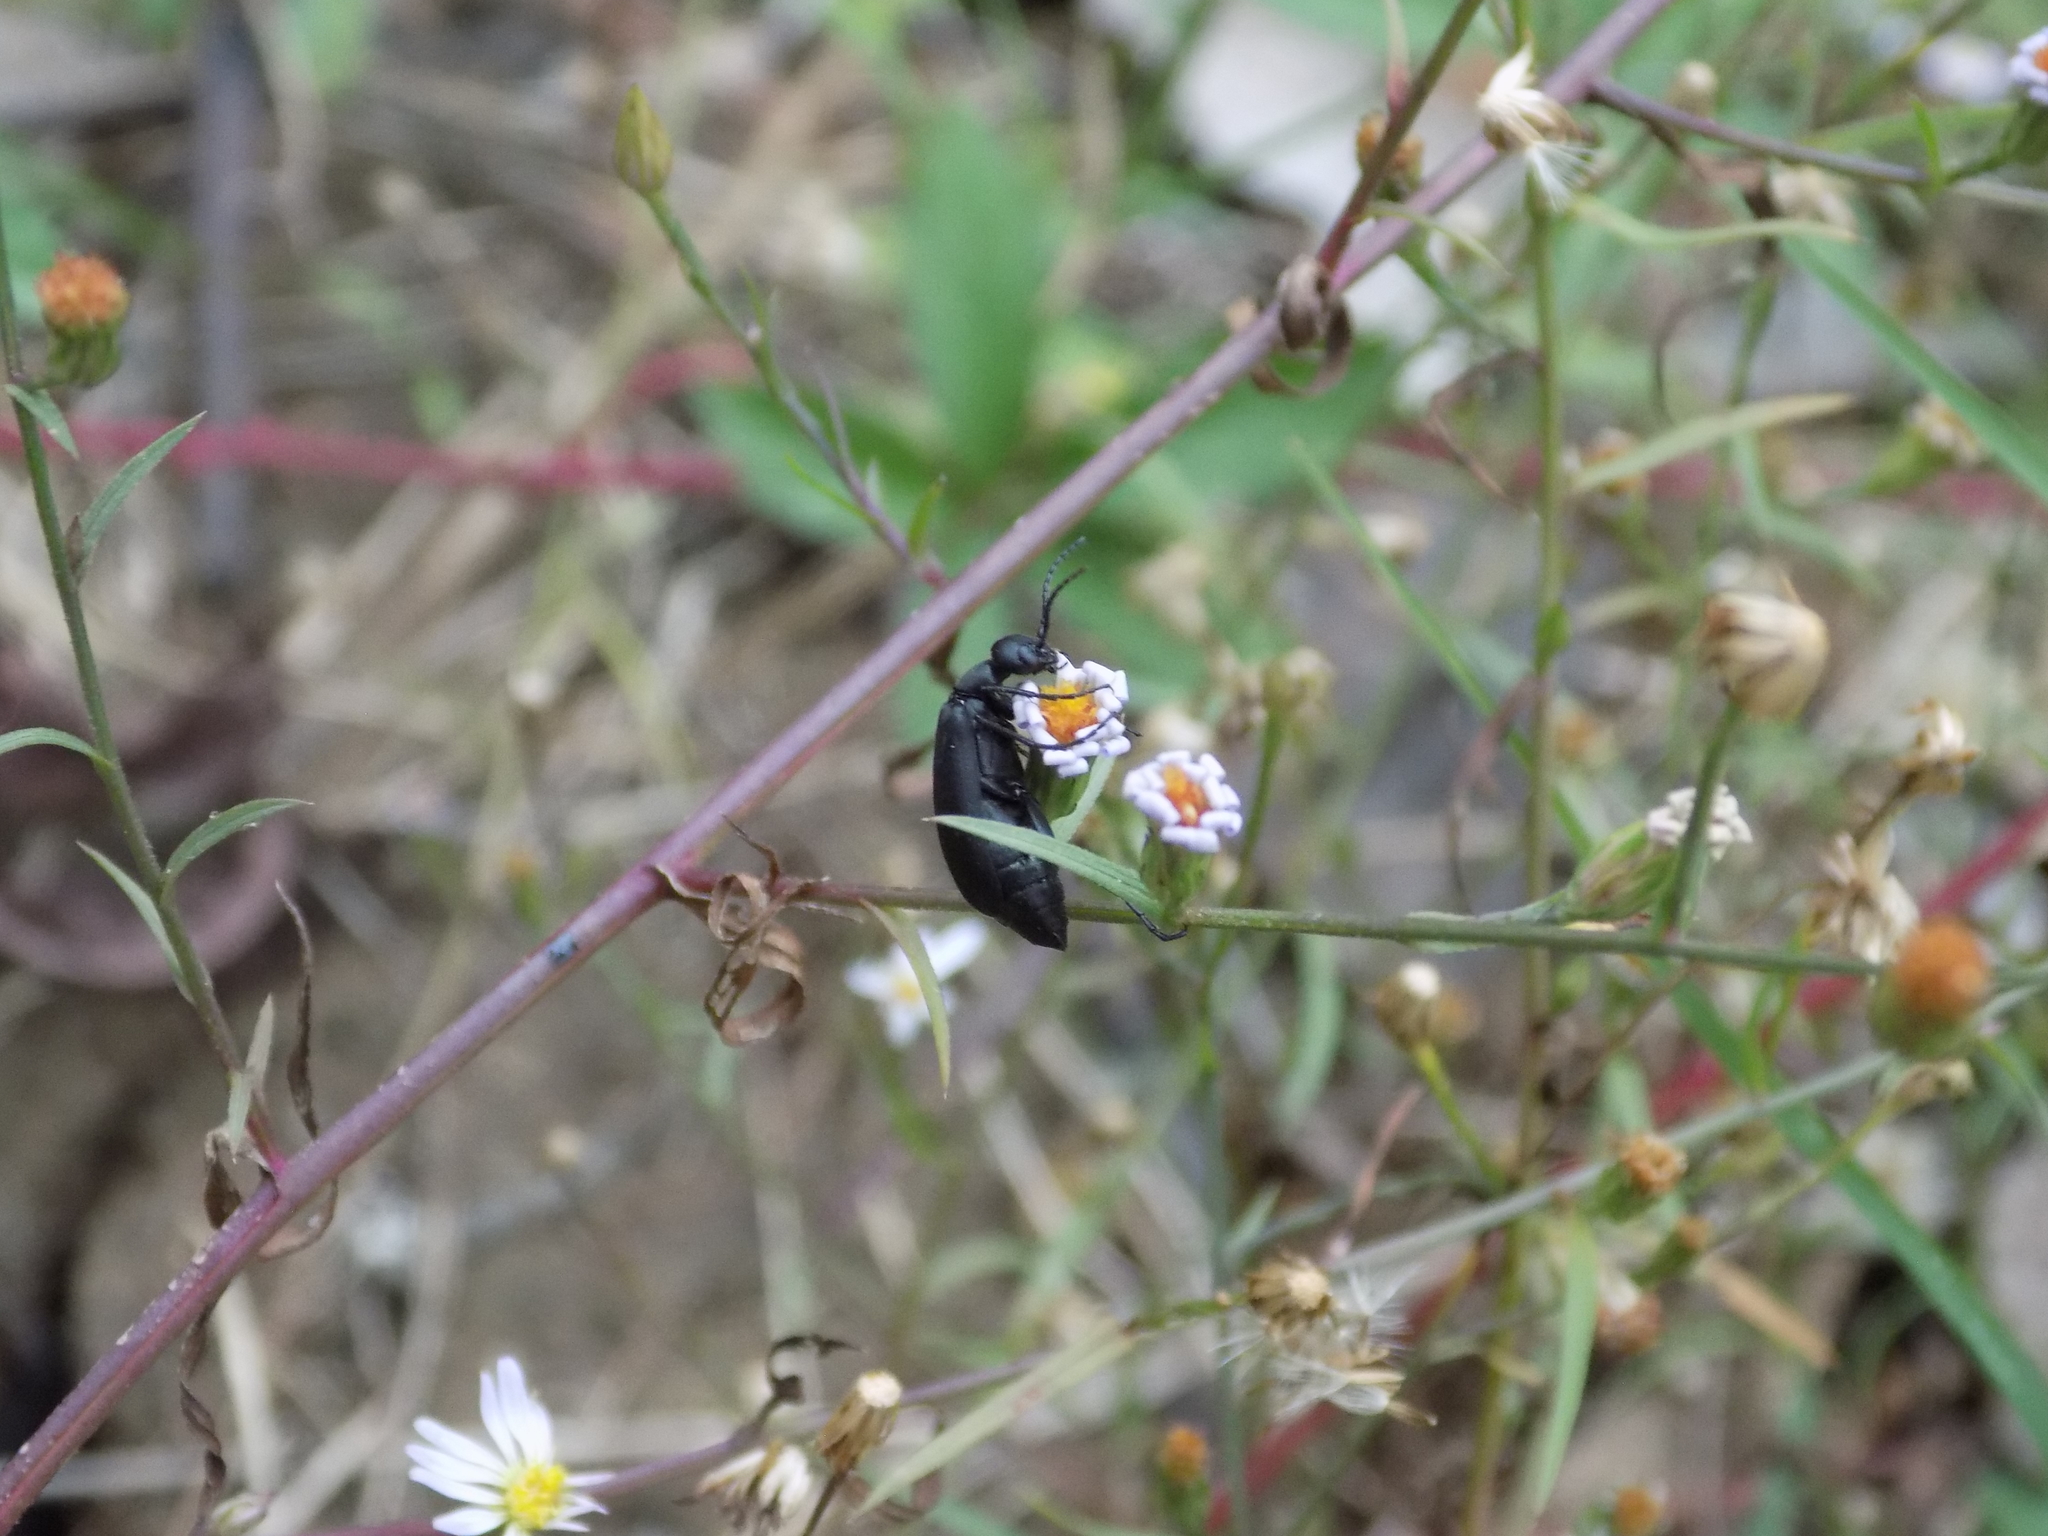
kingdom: Animalia
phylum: Arthropoda
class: Insecta
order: Coleoptera
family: Meloidae
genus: Epicauta
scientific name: Epicauta pensylvanica
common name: Black blister beetle
